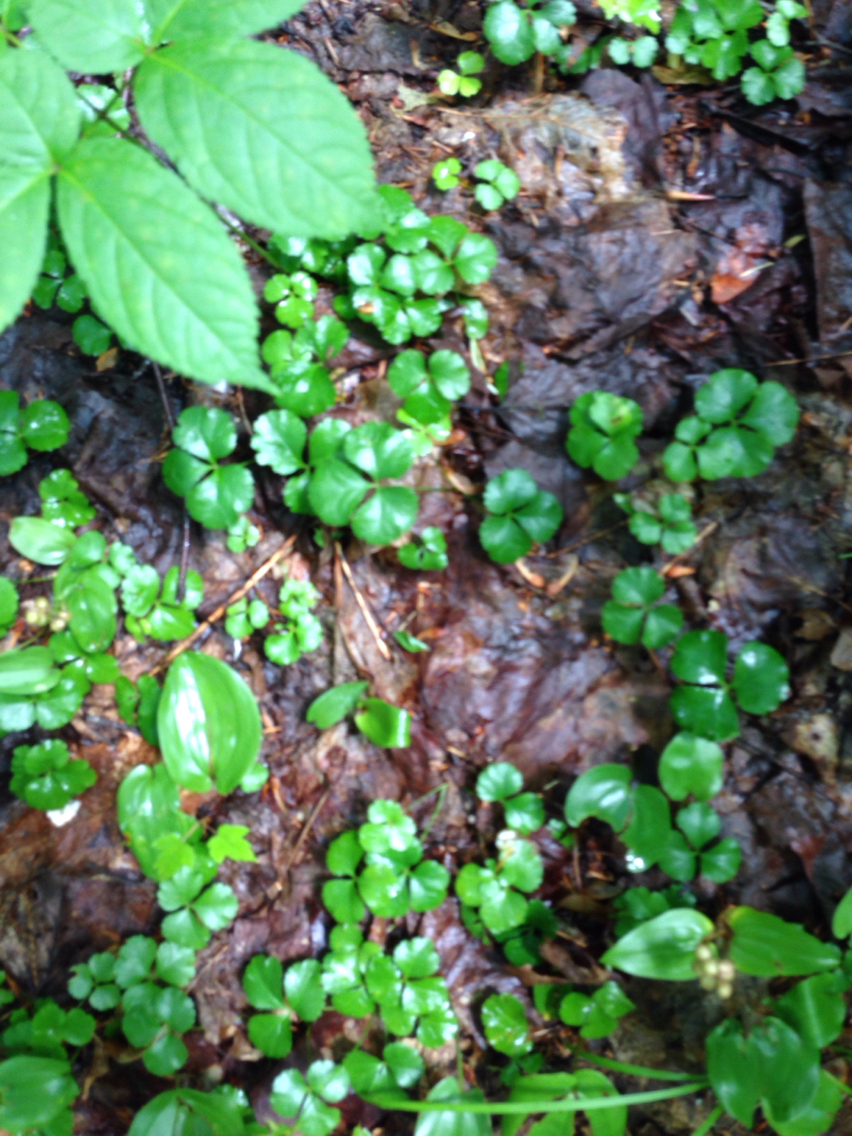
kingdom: Plantae
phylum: Tracheophyta
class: Magnoliopsida
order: Ranunculales
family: Ranunculaceae
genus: Coptis
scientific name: Coptis trifolia
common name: Canker-root
